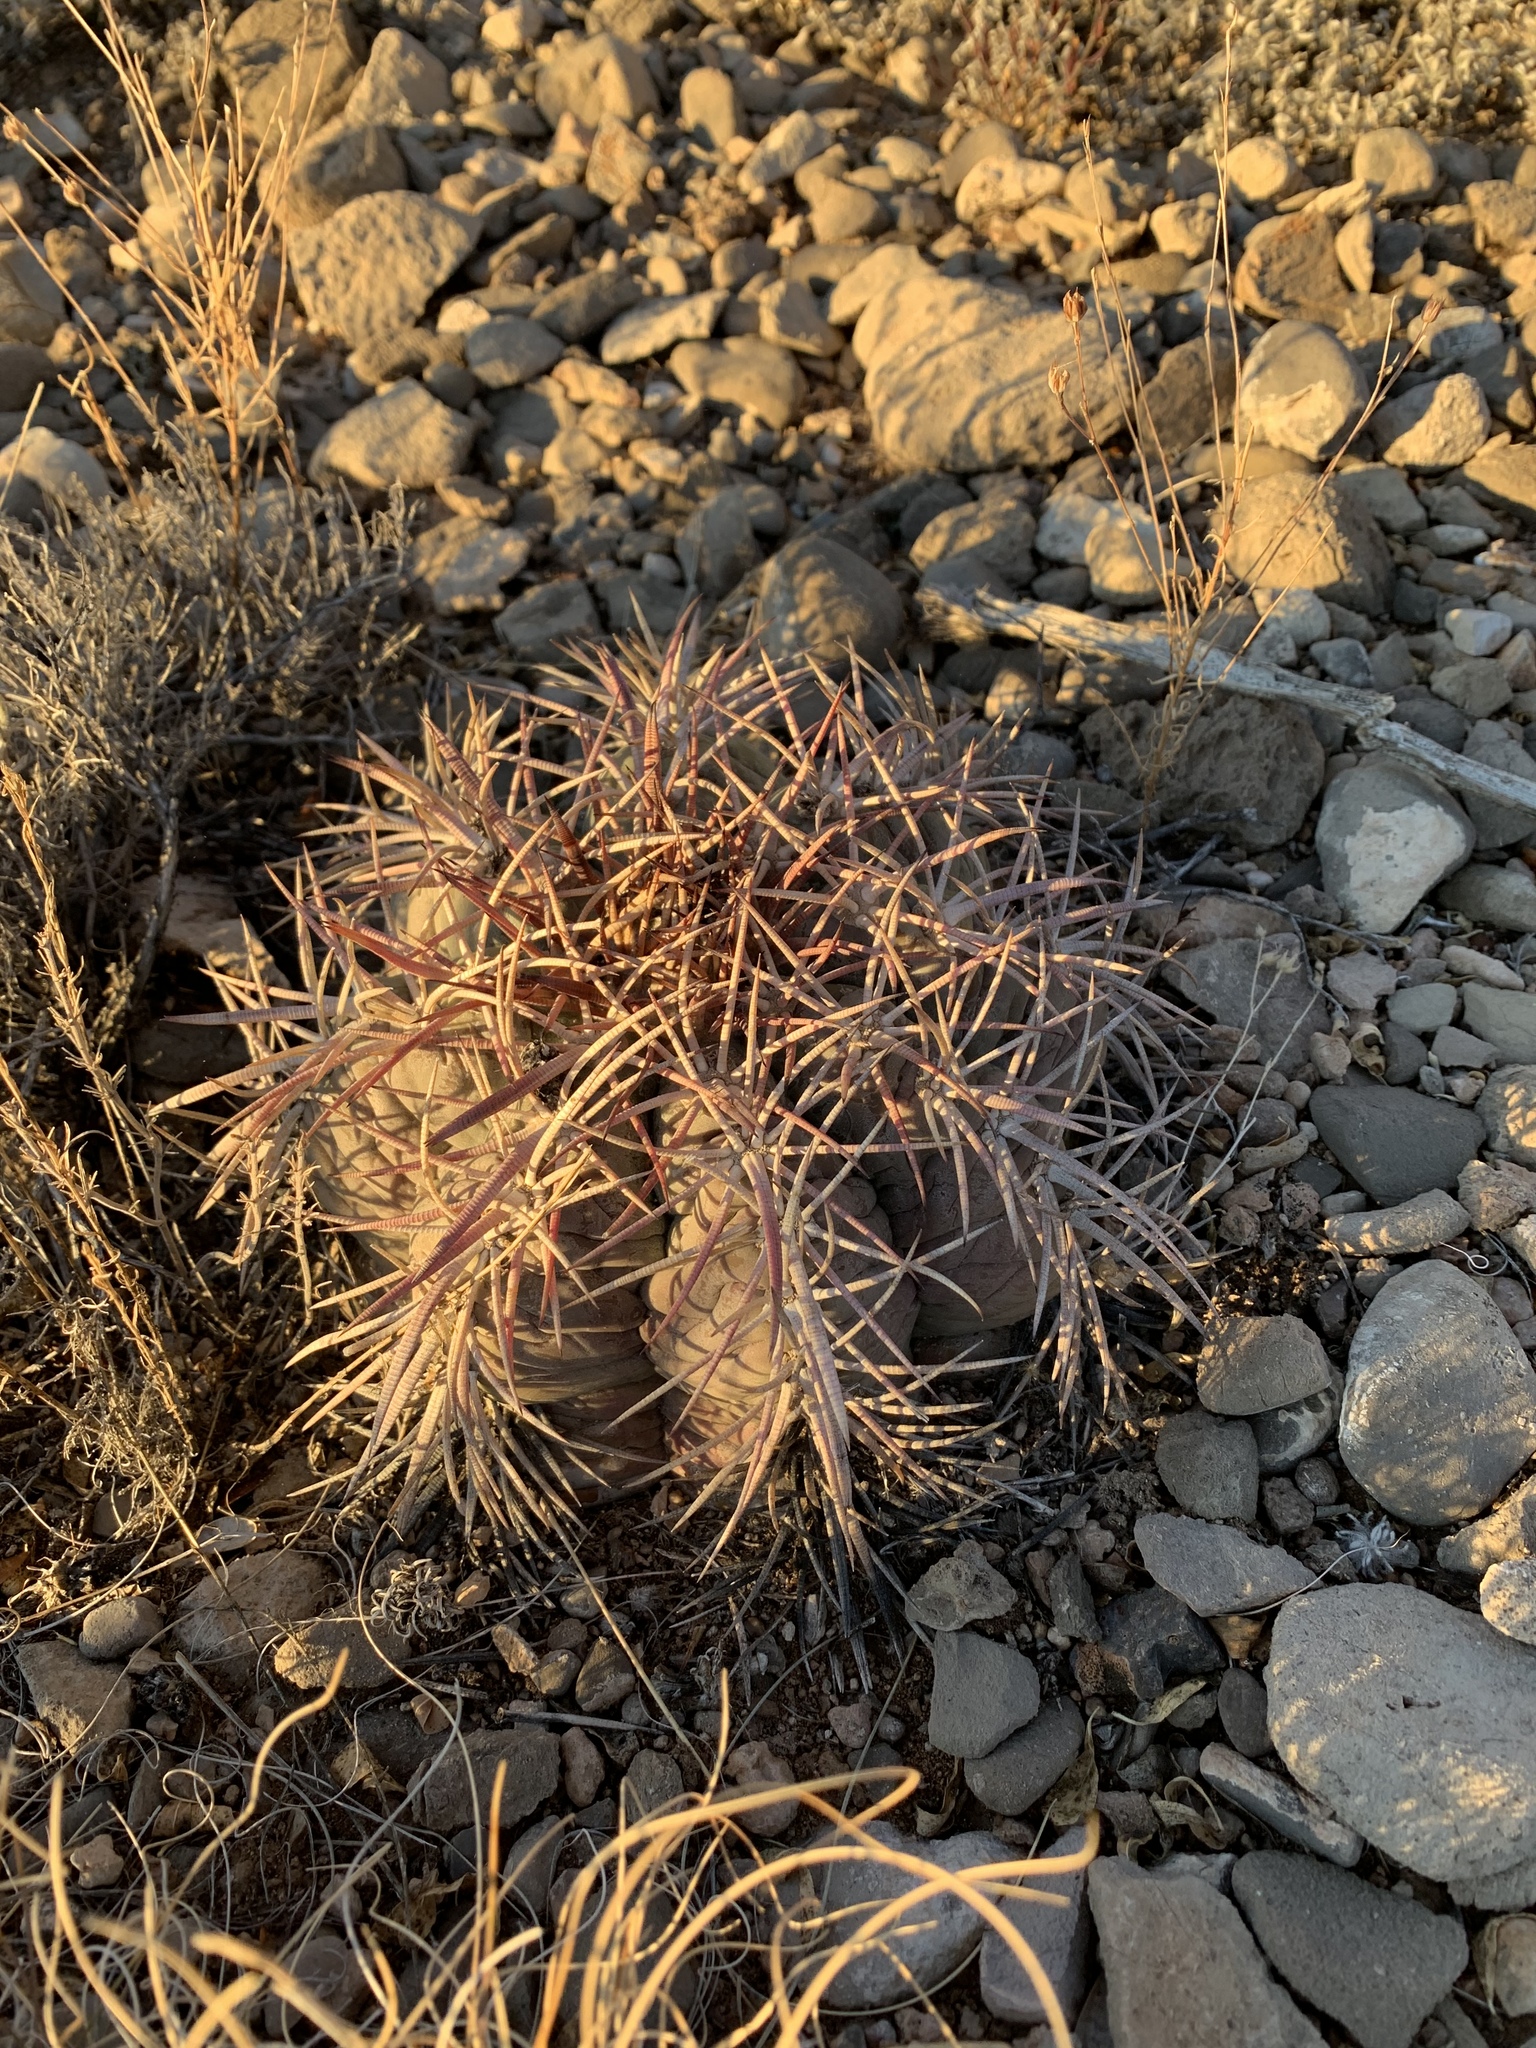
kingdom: Plantae
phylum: Tracheophyta
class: Magnoliopsida
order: Caryophyllales
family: Cactaceae
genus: Echinocactus
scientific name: Echinocactus horizonthalonius
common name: Devilshead
